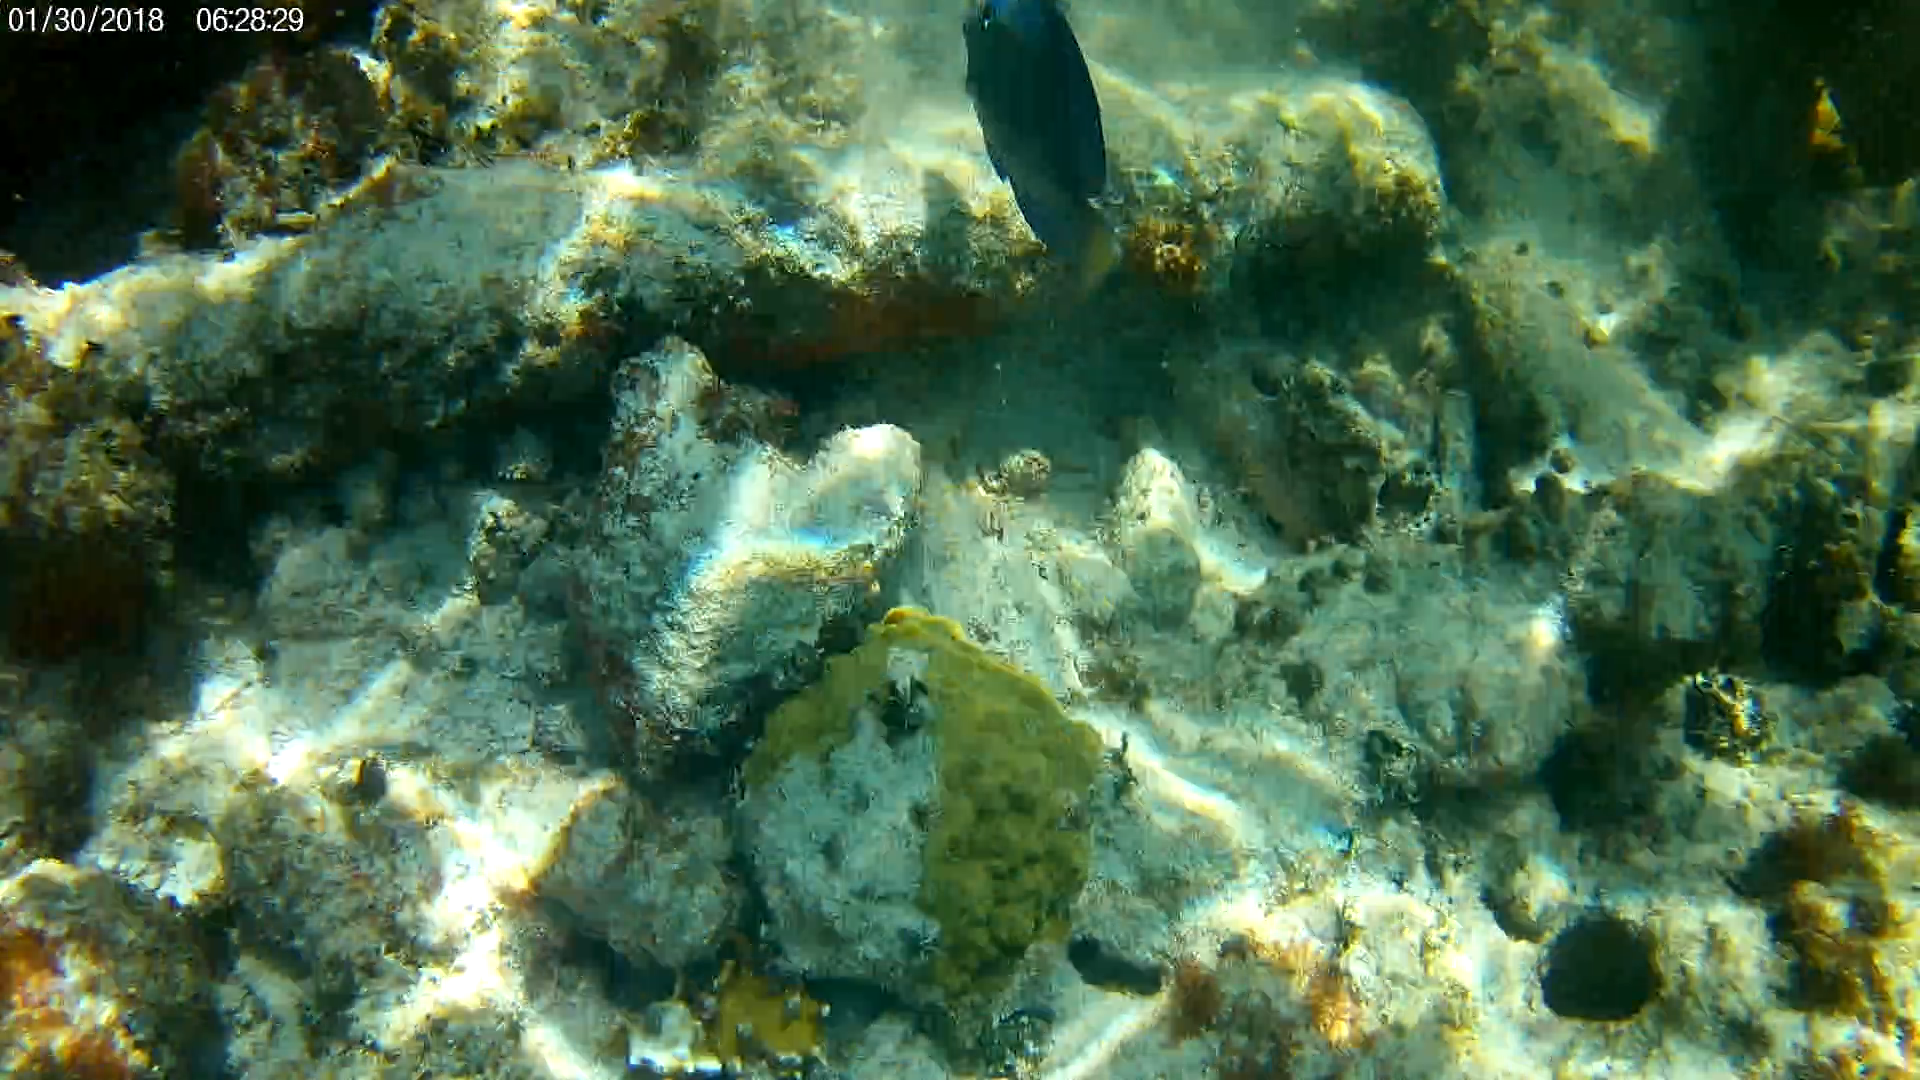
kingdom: Animalia
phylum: Cnidaria
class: Anthozoa
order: Scleractinia
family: Poritidae
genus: Porites
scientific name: Porites astreoides
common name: Mustard hill coral
